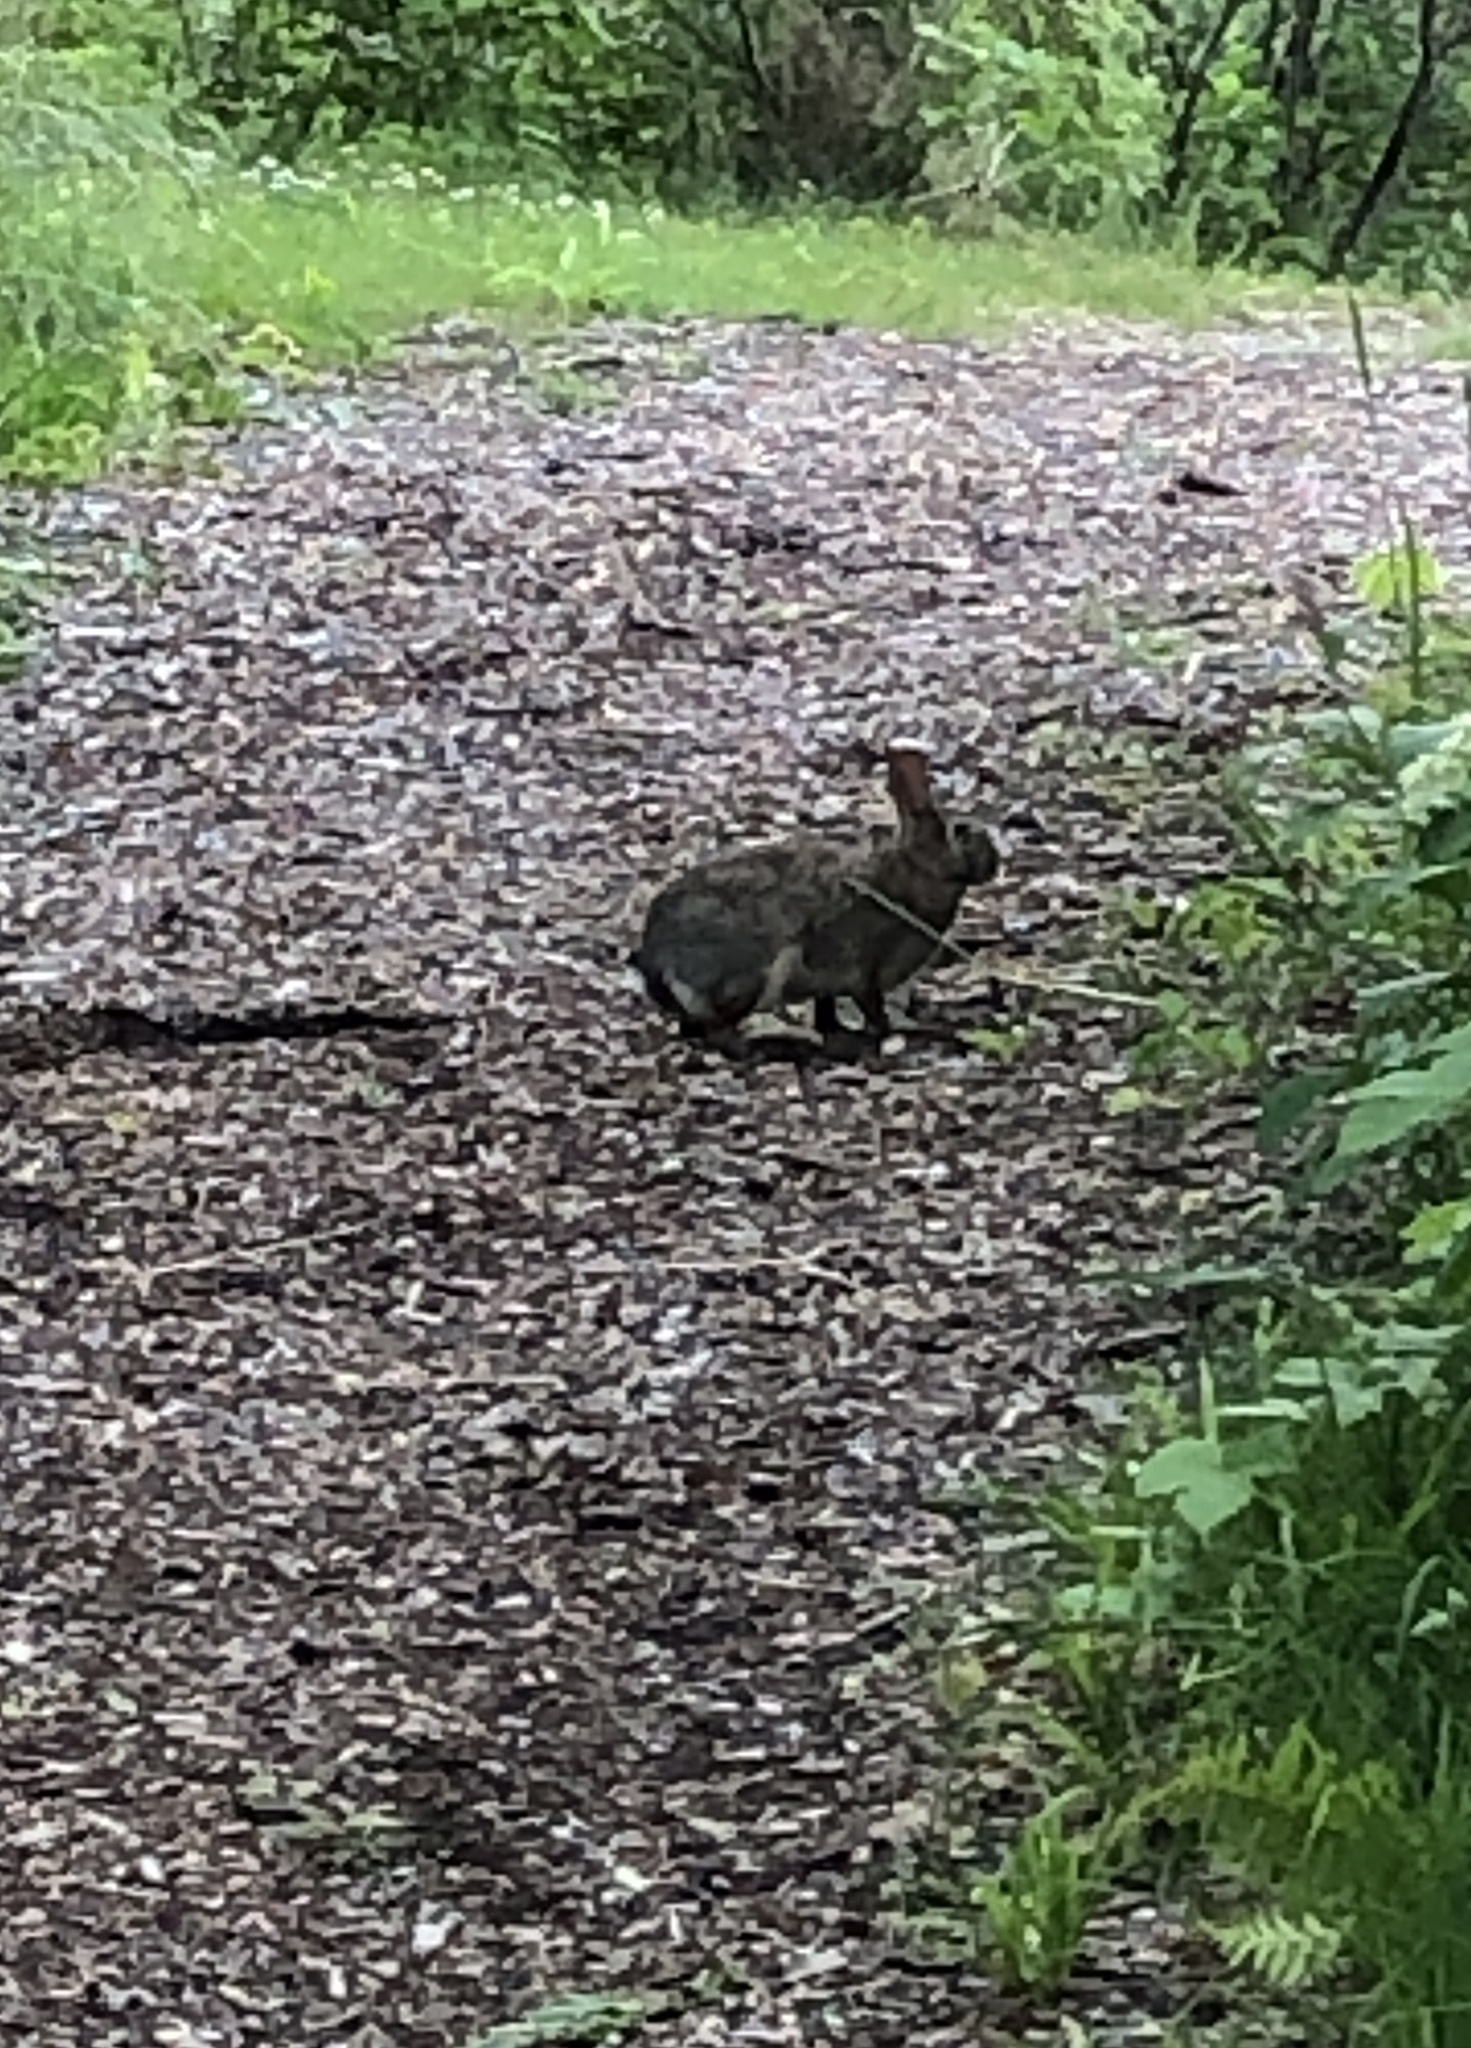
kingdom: Animalia
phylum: Chordata
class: Mammalia
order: Lagomorpha
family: Leporidae
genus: Sylvilagus
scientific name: Sylvilagus floridanus
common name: Eastern cottontail
